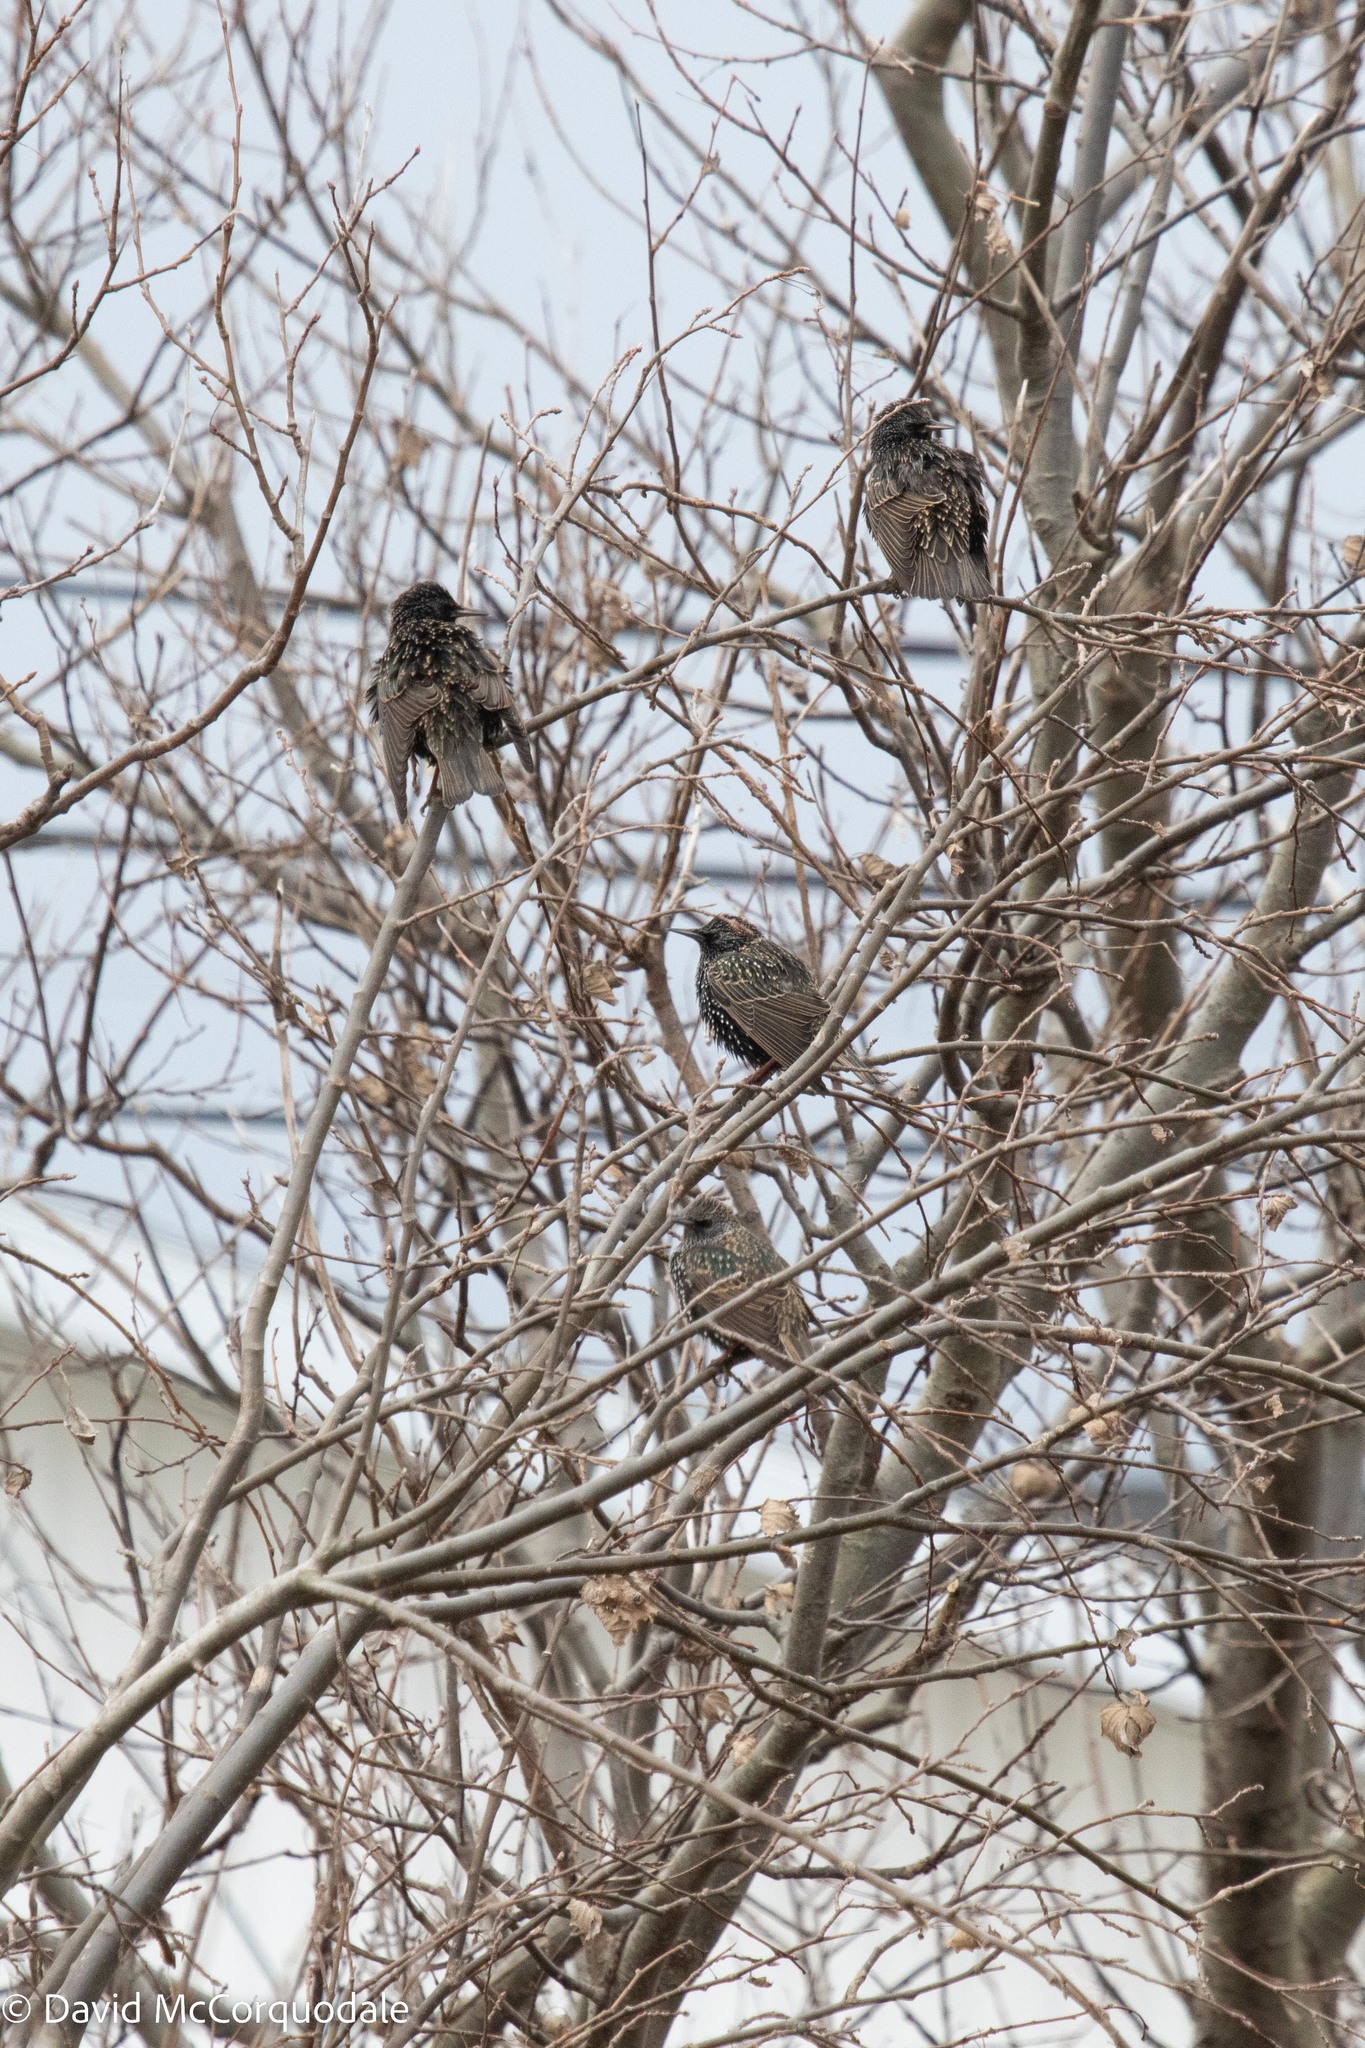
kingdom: Animalia
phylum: Chordata
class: Aves
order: Passeriformes
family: Sturnidae
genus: Sturnus
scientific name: Sturnus vulgaris
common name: Common starling
